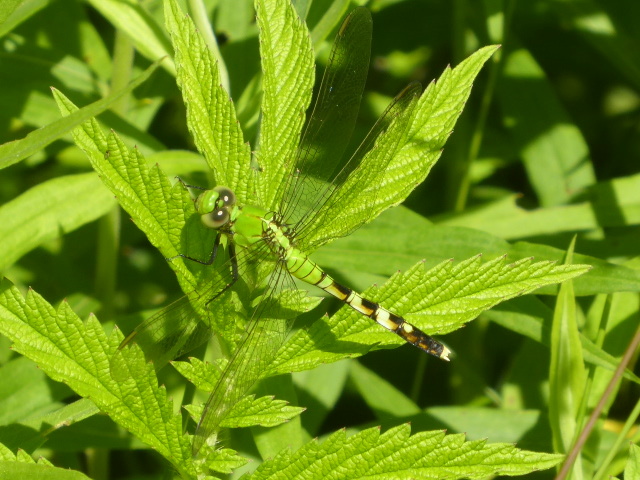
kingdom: Animalia
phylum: Arthropoda
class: Insecta
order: Odonata
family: Libellulidae
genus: Erythemis
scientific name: Erythemis simplicicollis
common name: Eastern pondhawk
